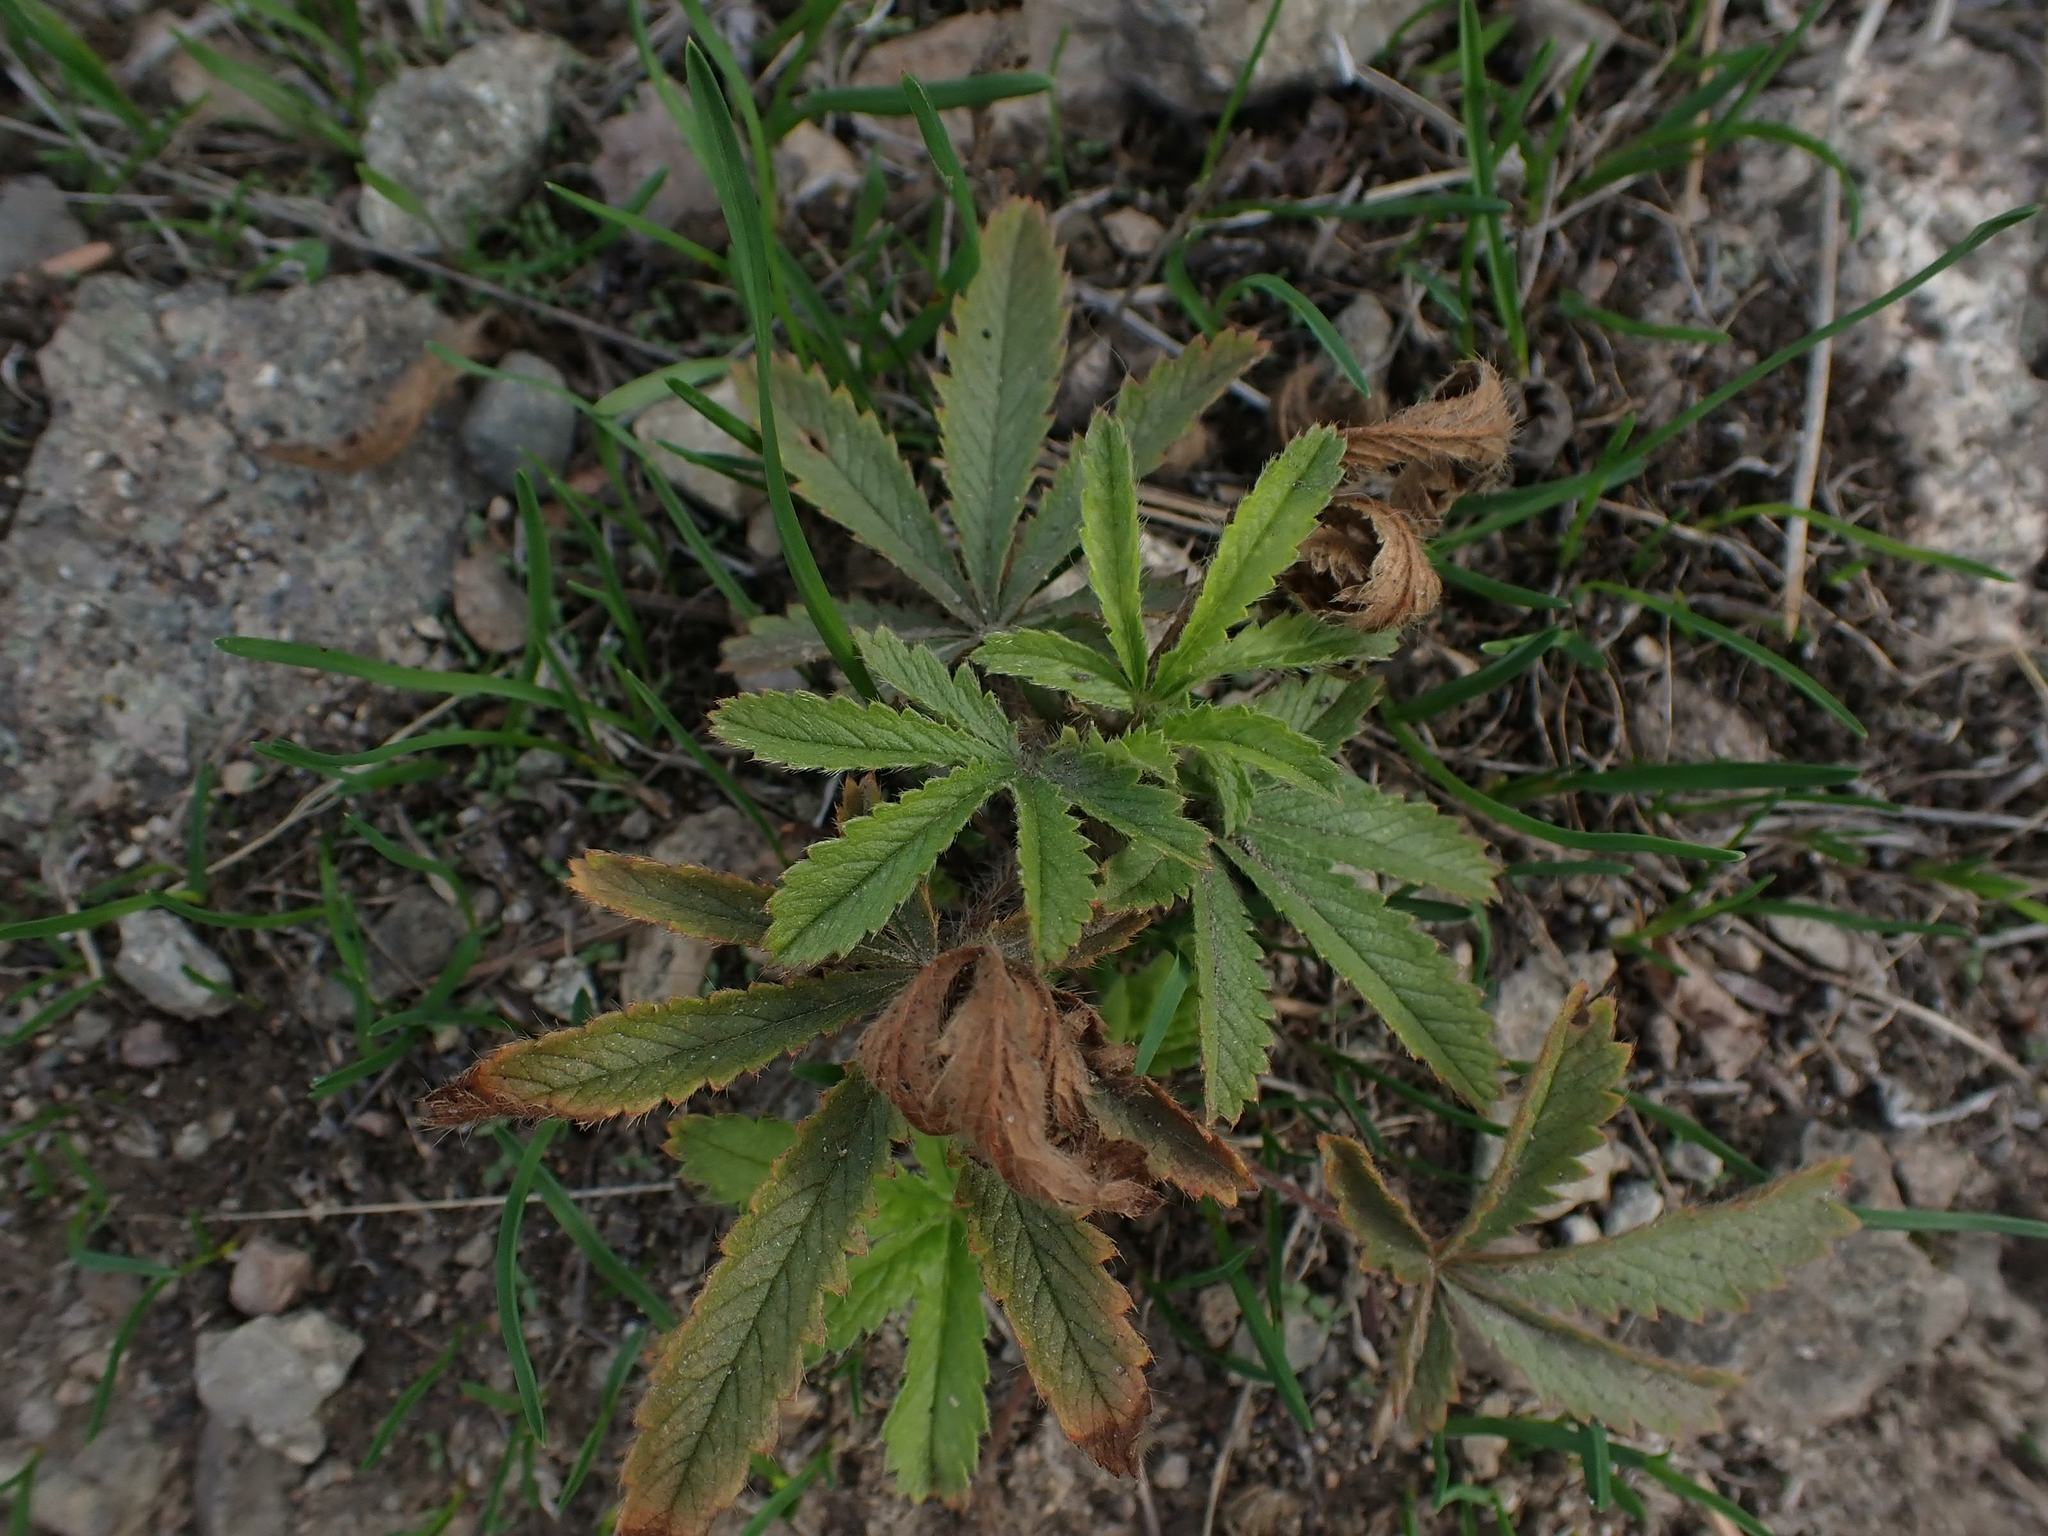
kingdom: Plantae
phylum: Tracheophyta
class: Magnoliopsida
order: Rosales
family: Rosaceae
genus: Potentilla
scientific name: Potentilla recta
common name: Sulphur cinquefoil
